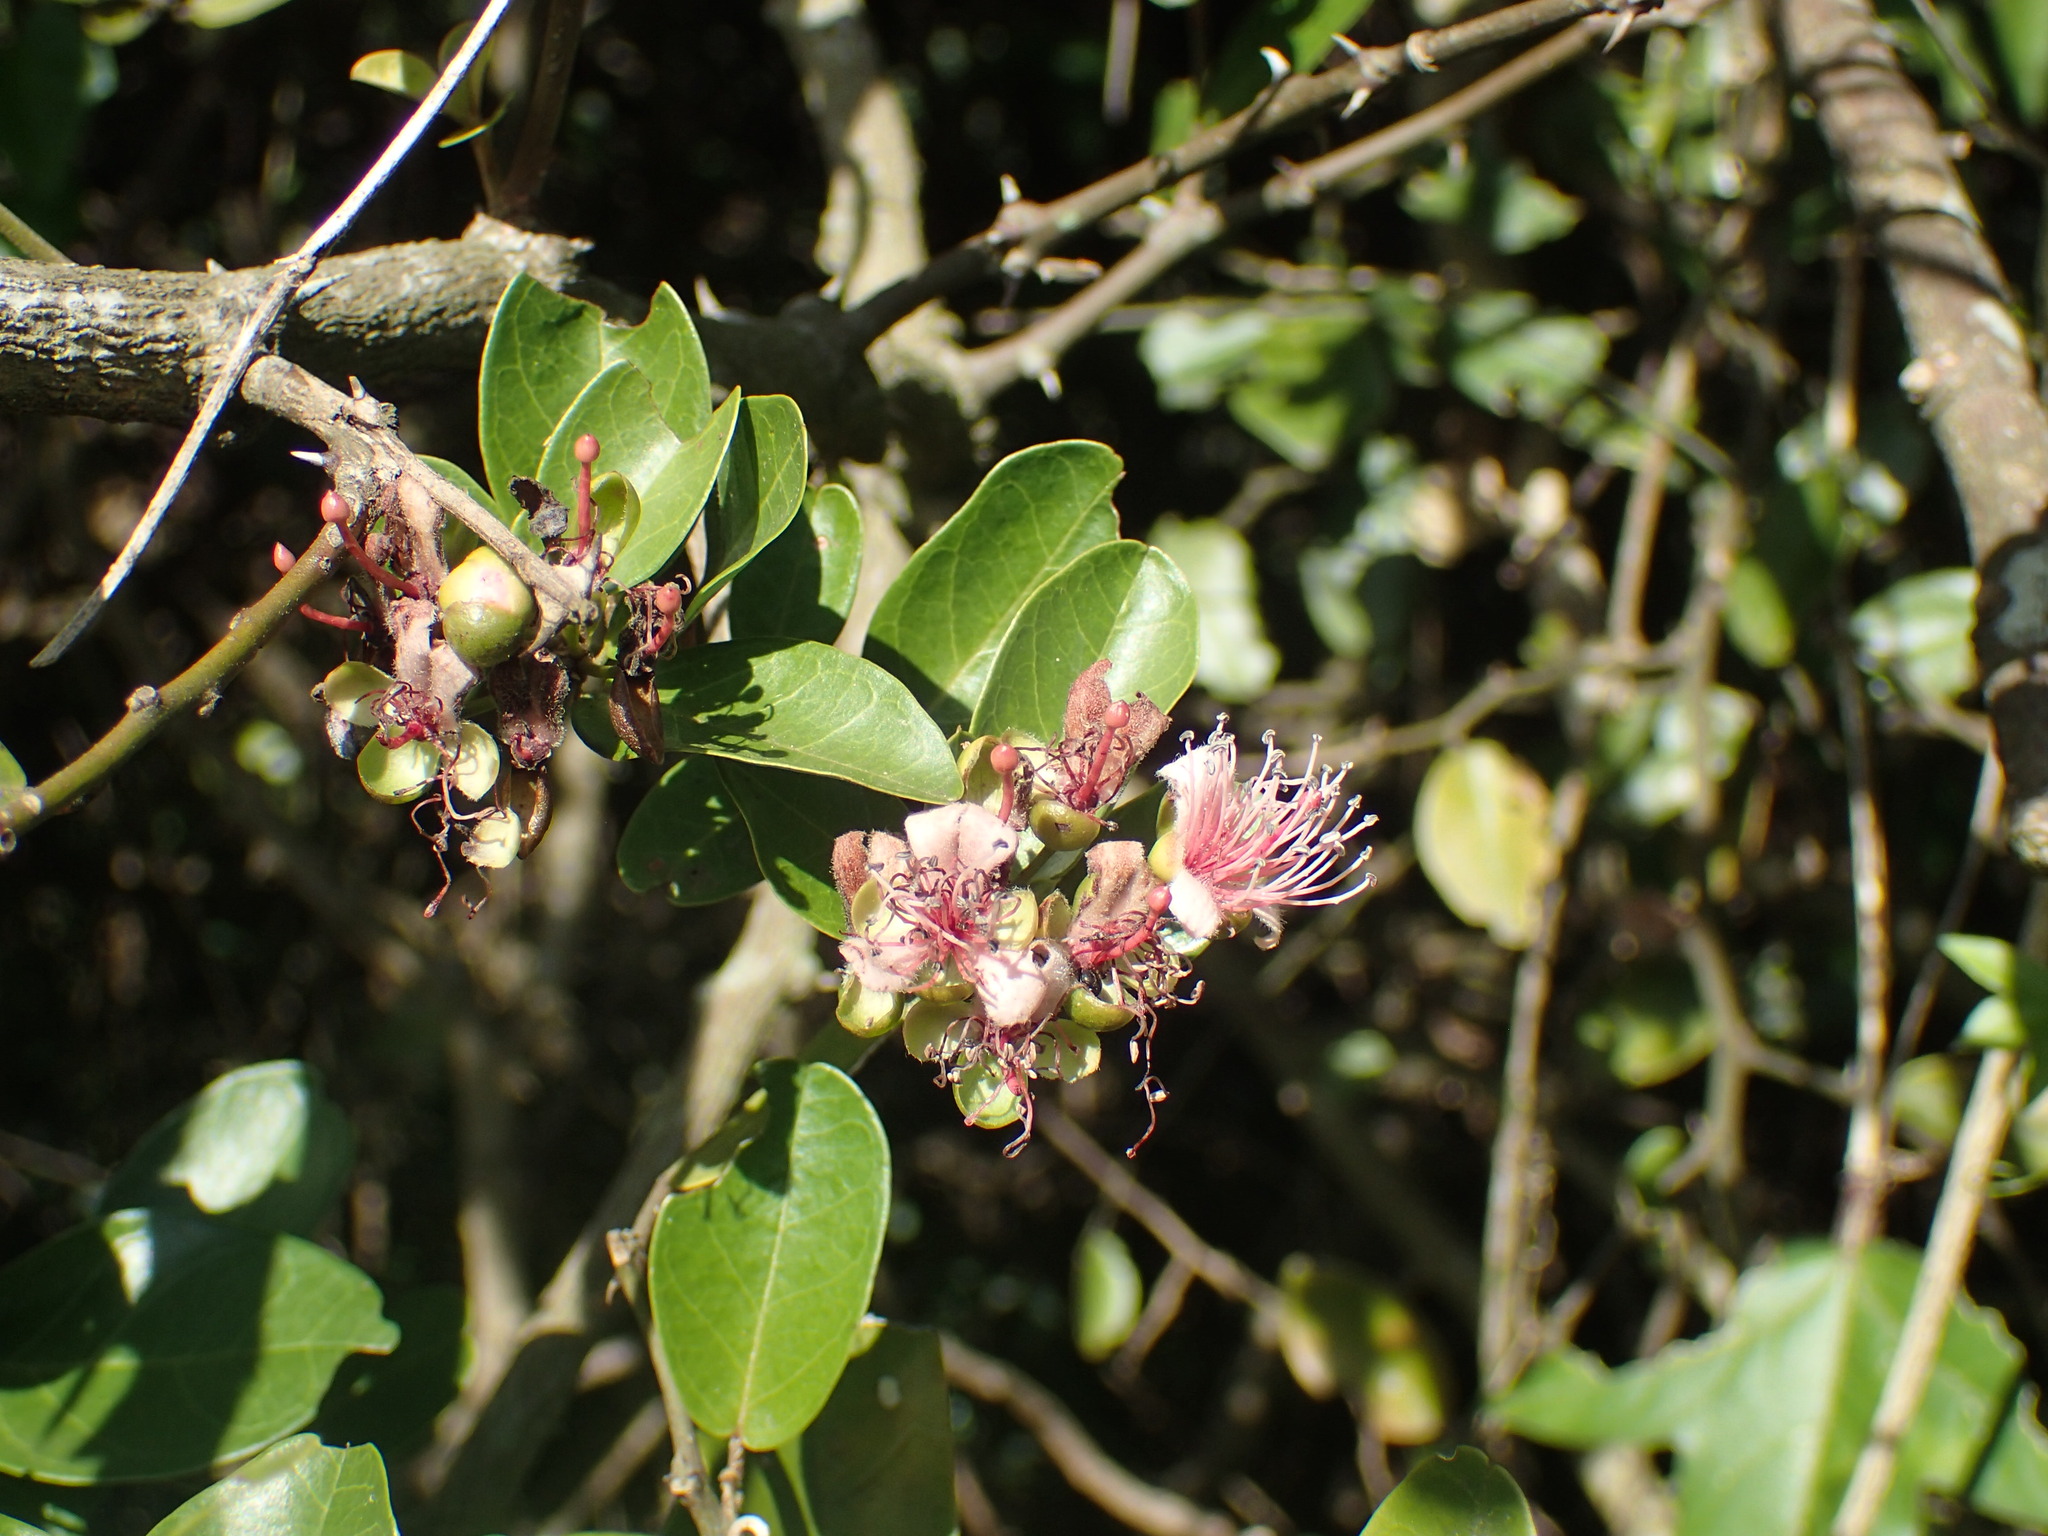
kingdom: Plantae
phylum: Tracheophyta
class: Magnoliopsida
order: Brassicales
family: Capparaceae
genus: Capparis
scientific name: Capparis sepiaria
